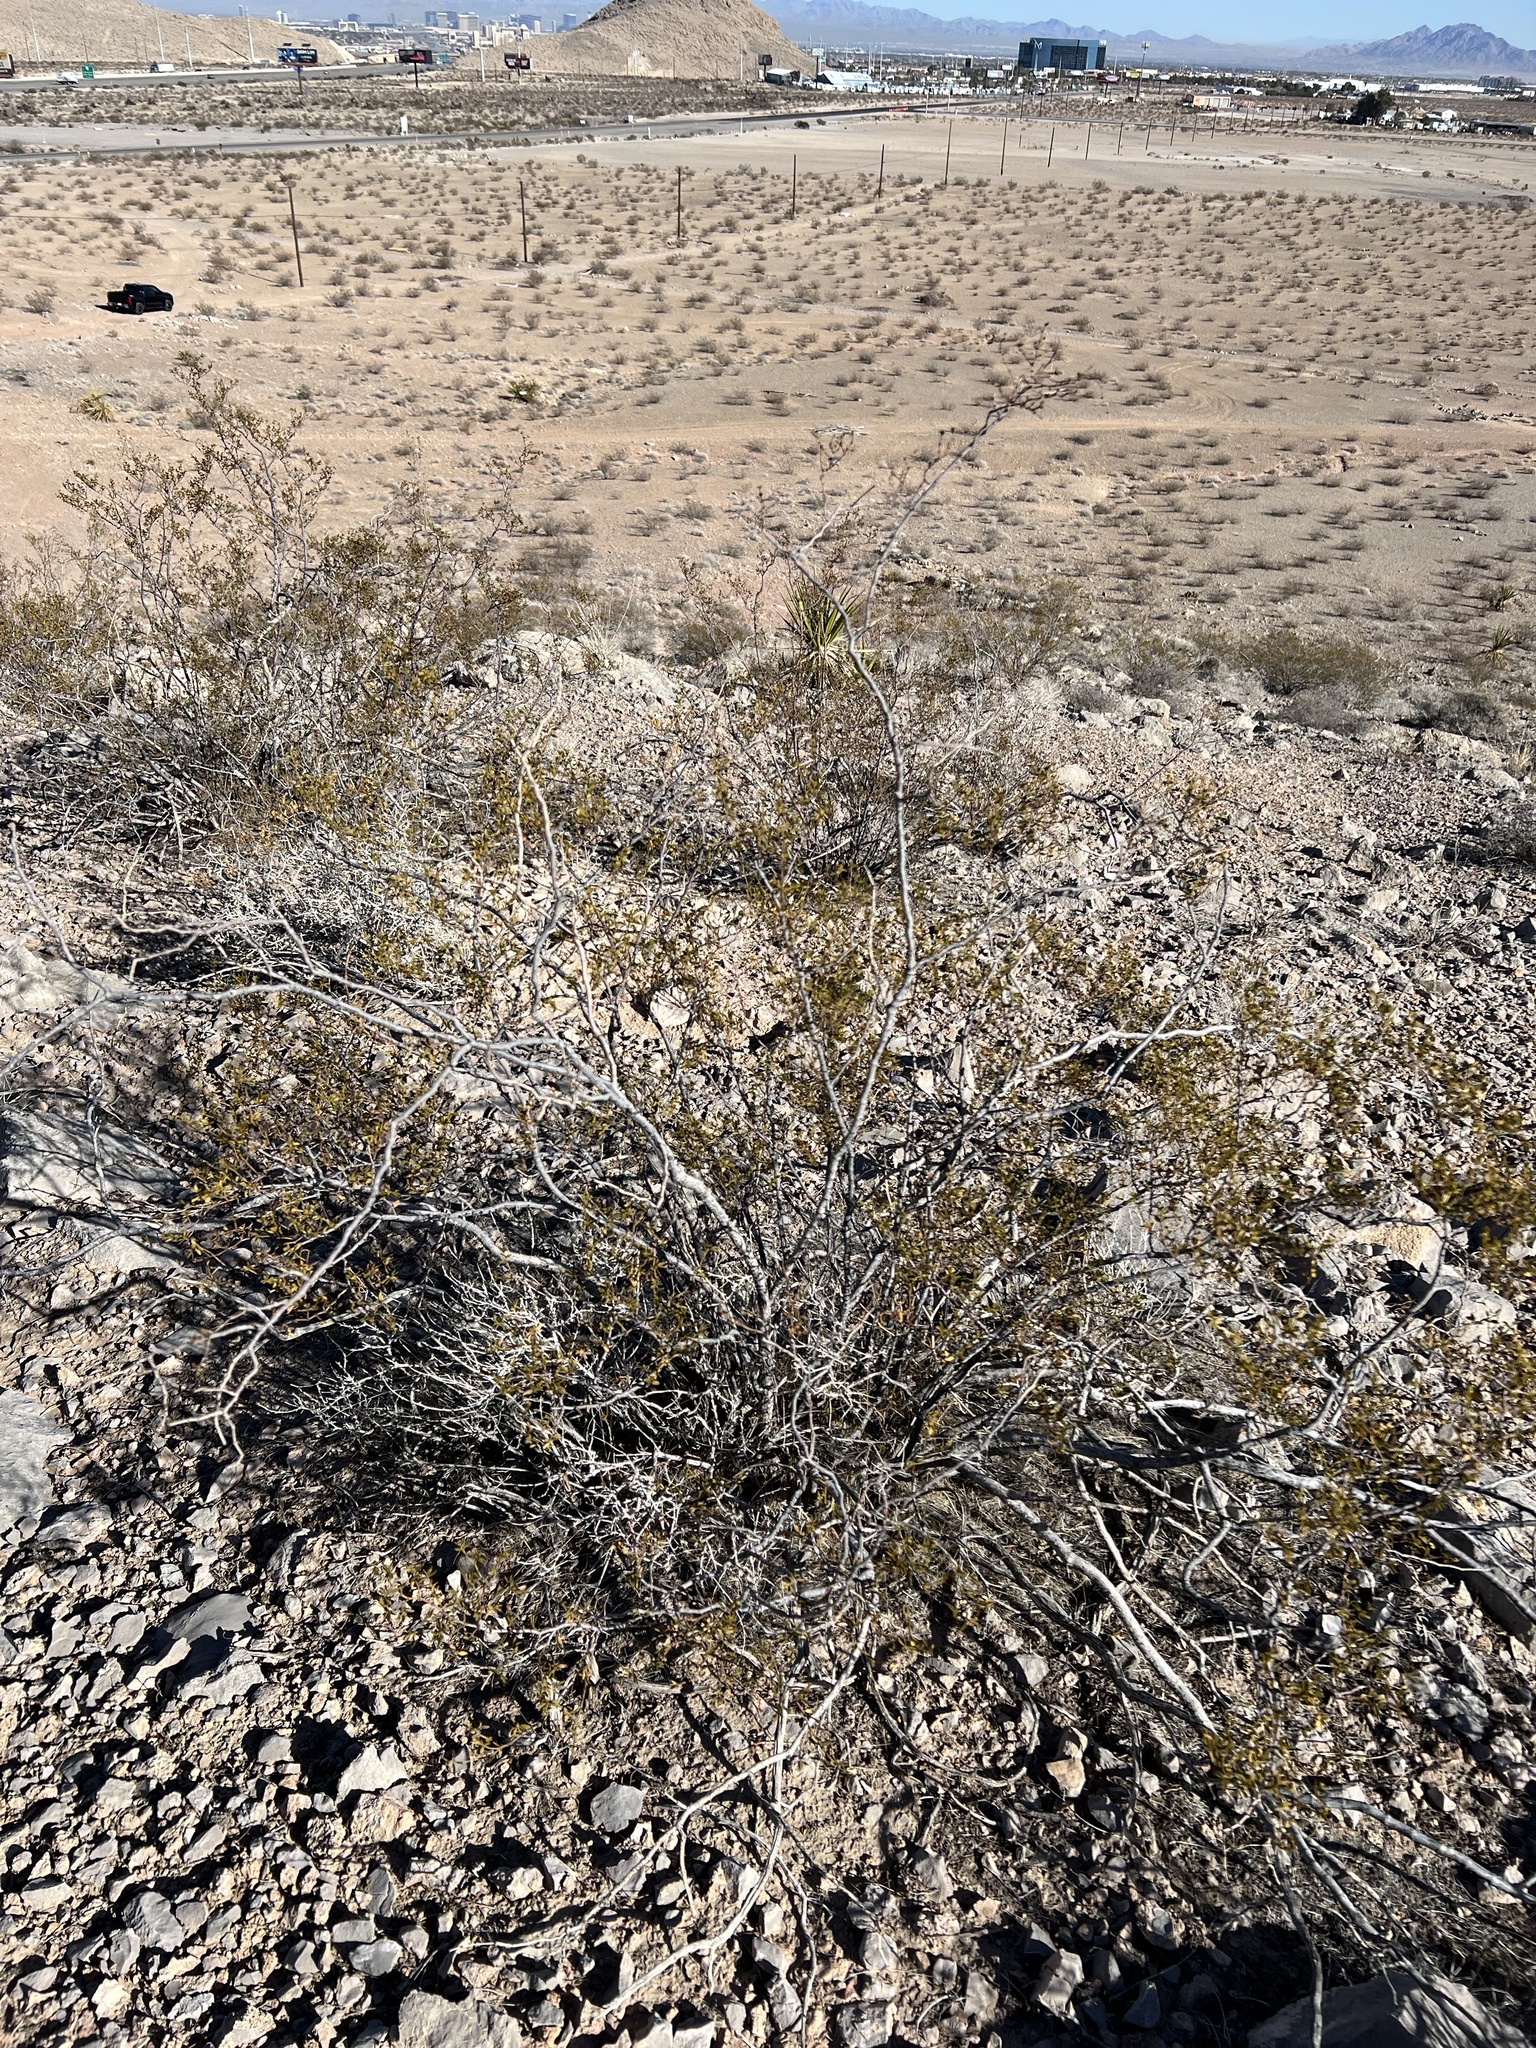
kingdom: Plantae
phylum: Tracheophyta
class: Magnoliopsida
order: Zygophyllales
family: Zygophyllaceae
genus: Larrea
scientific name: Larrea tridentata
